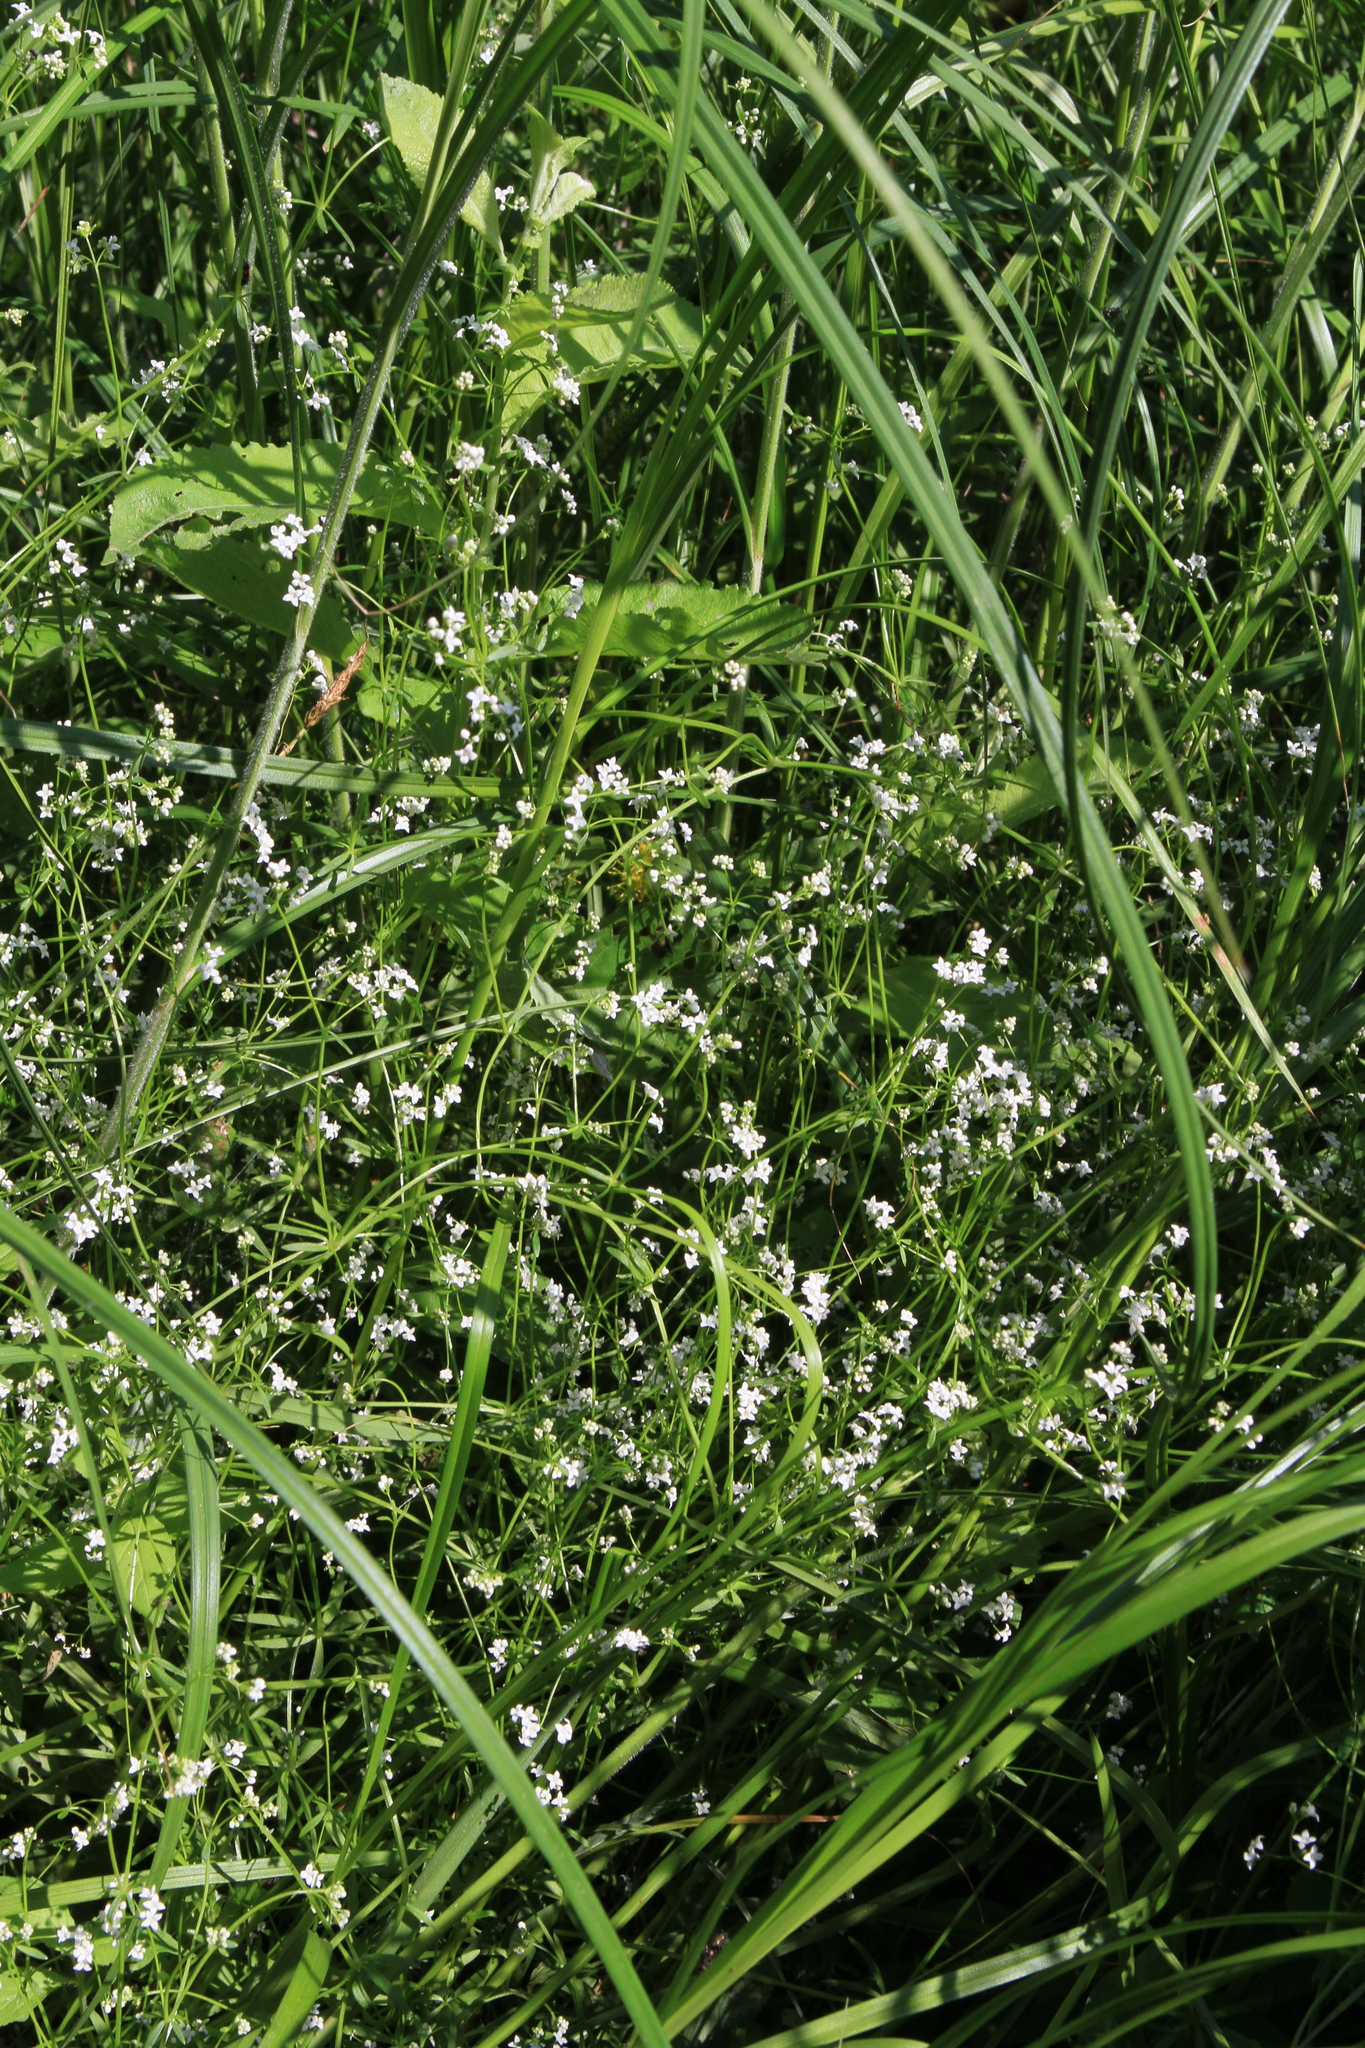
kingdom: Plantae
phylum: Tracheophyta
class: Magnoliopsida
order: Gentianales
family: Rubiaceae
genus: Galium
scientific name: Galium palustre
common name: Common marsh-bedstraw
